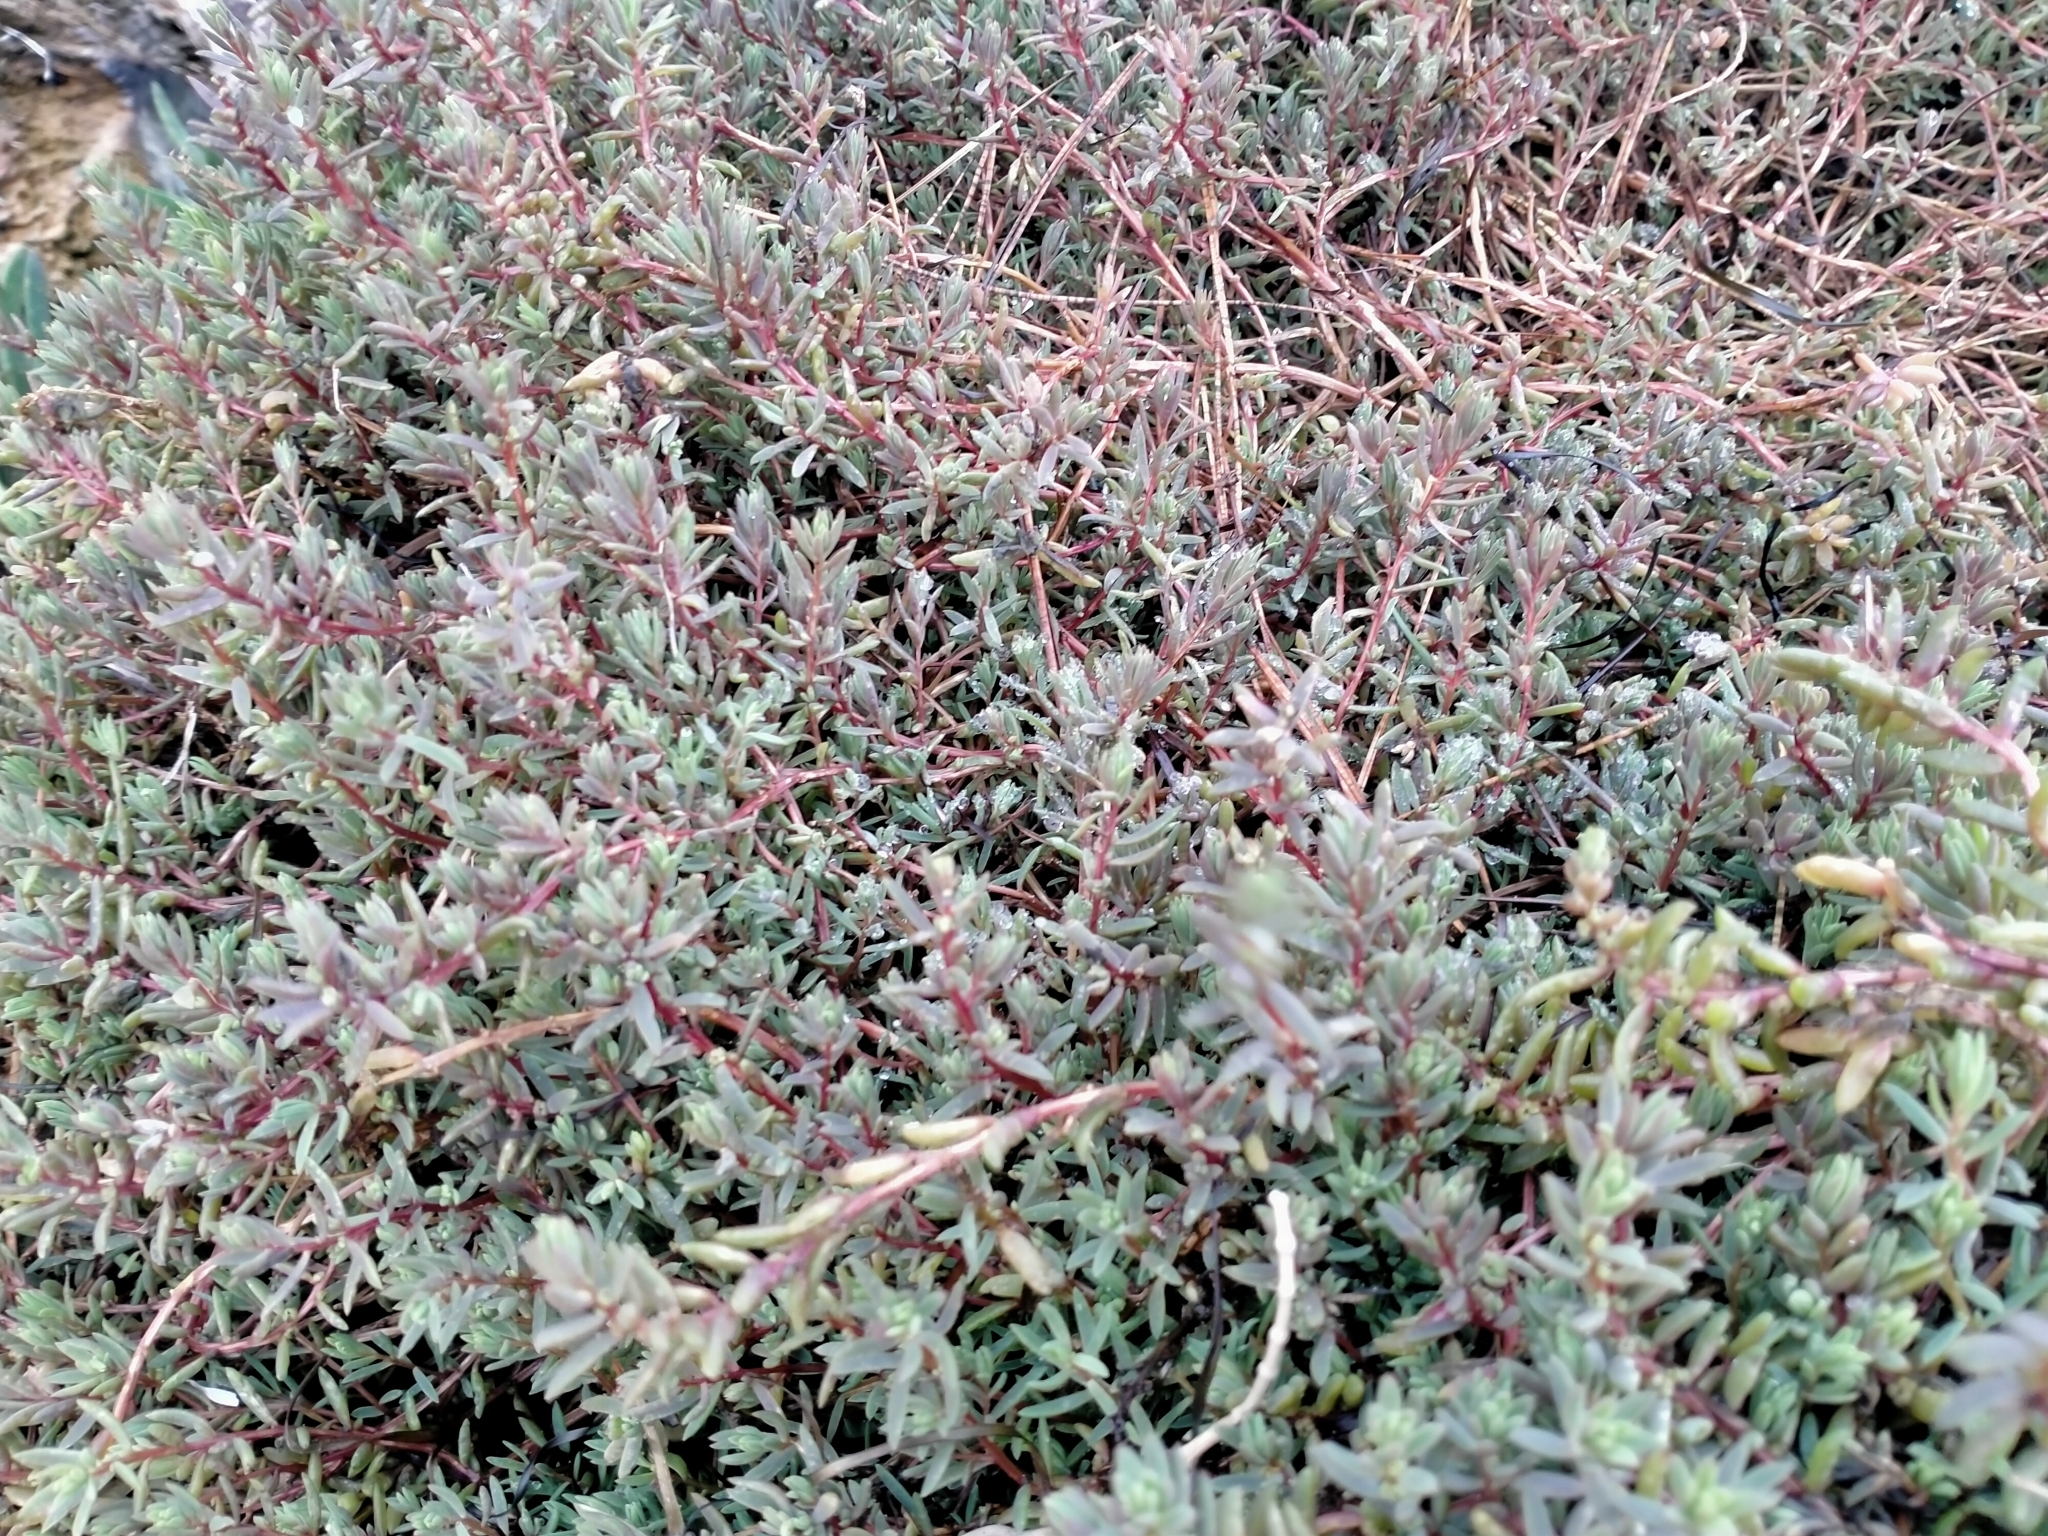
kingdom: Plantae
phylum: Tracheophyta
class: Magnoliopsida
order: Caryophyllales
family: Amaranthaceae
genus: Suaeda
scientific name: Suaeda novae-zelandiae
